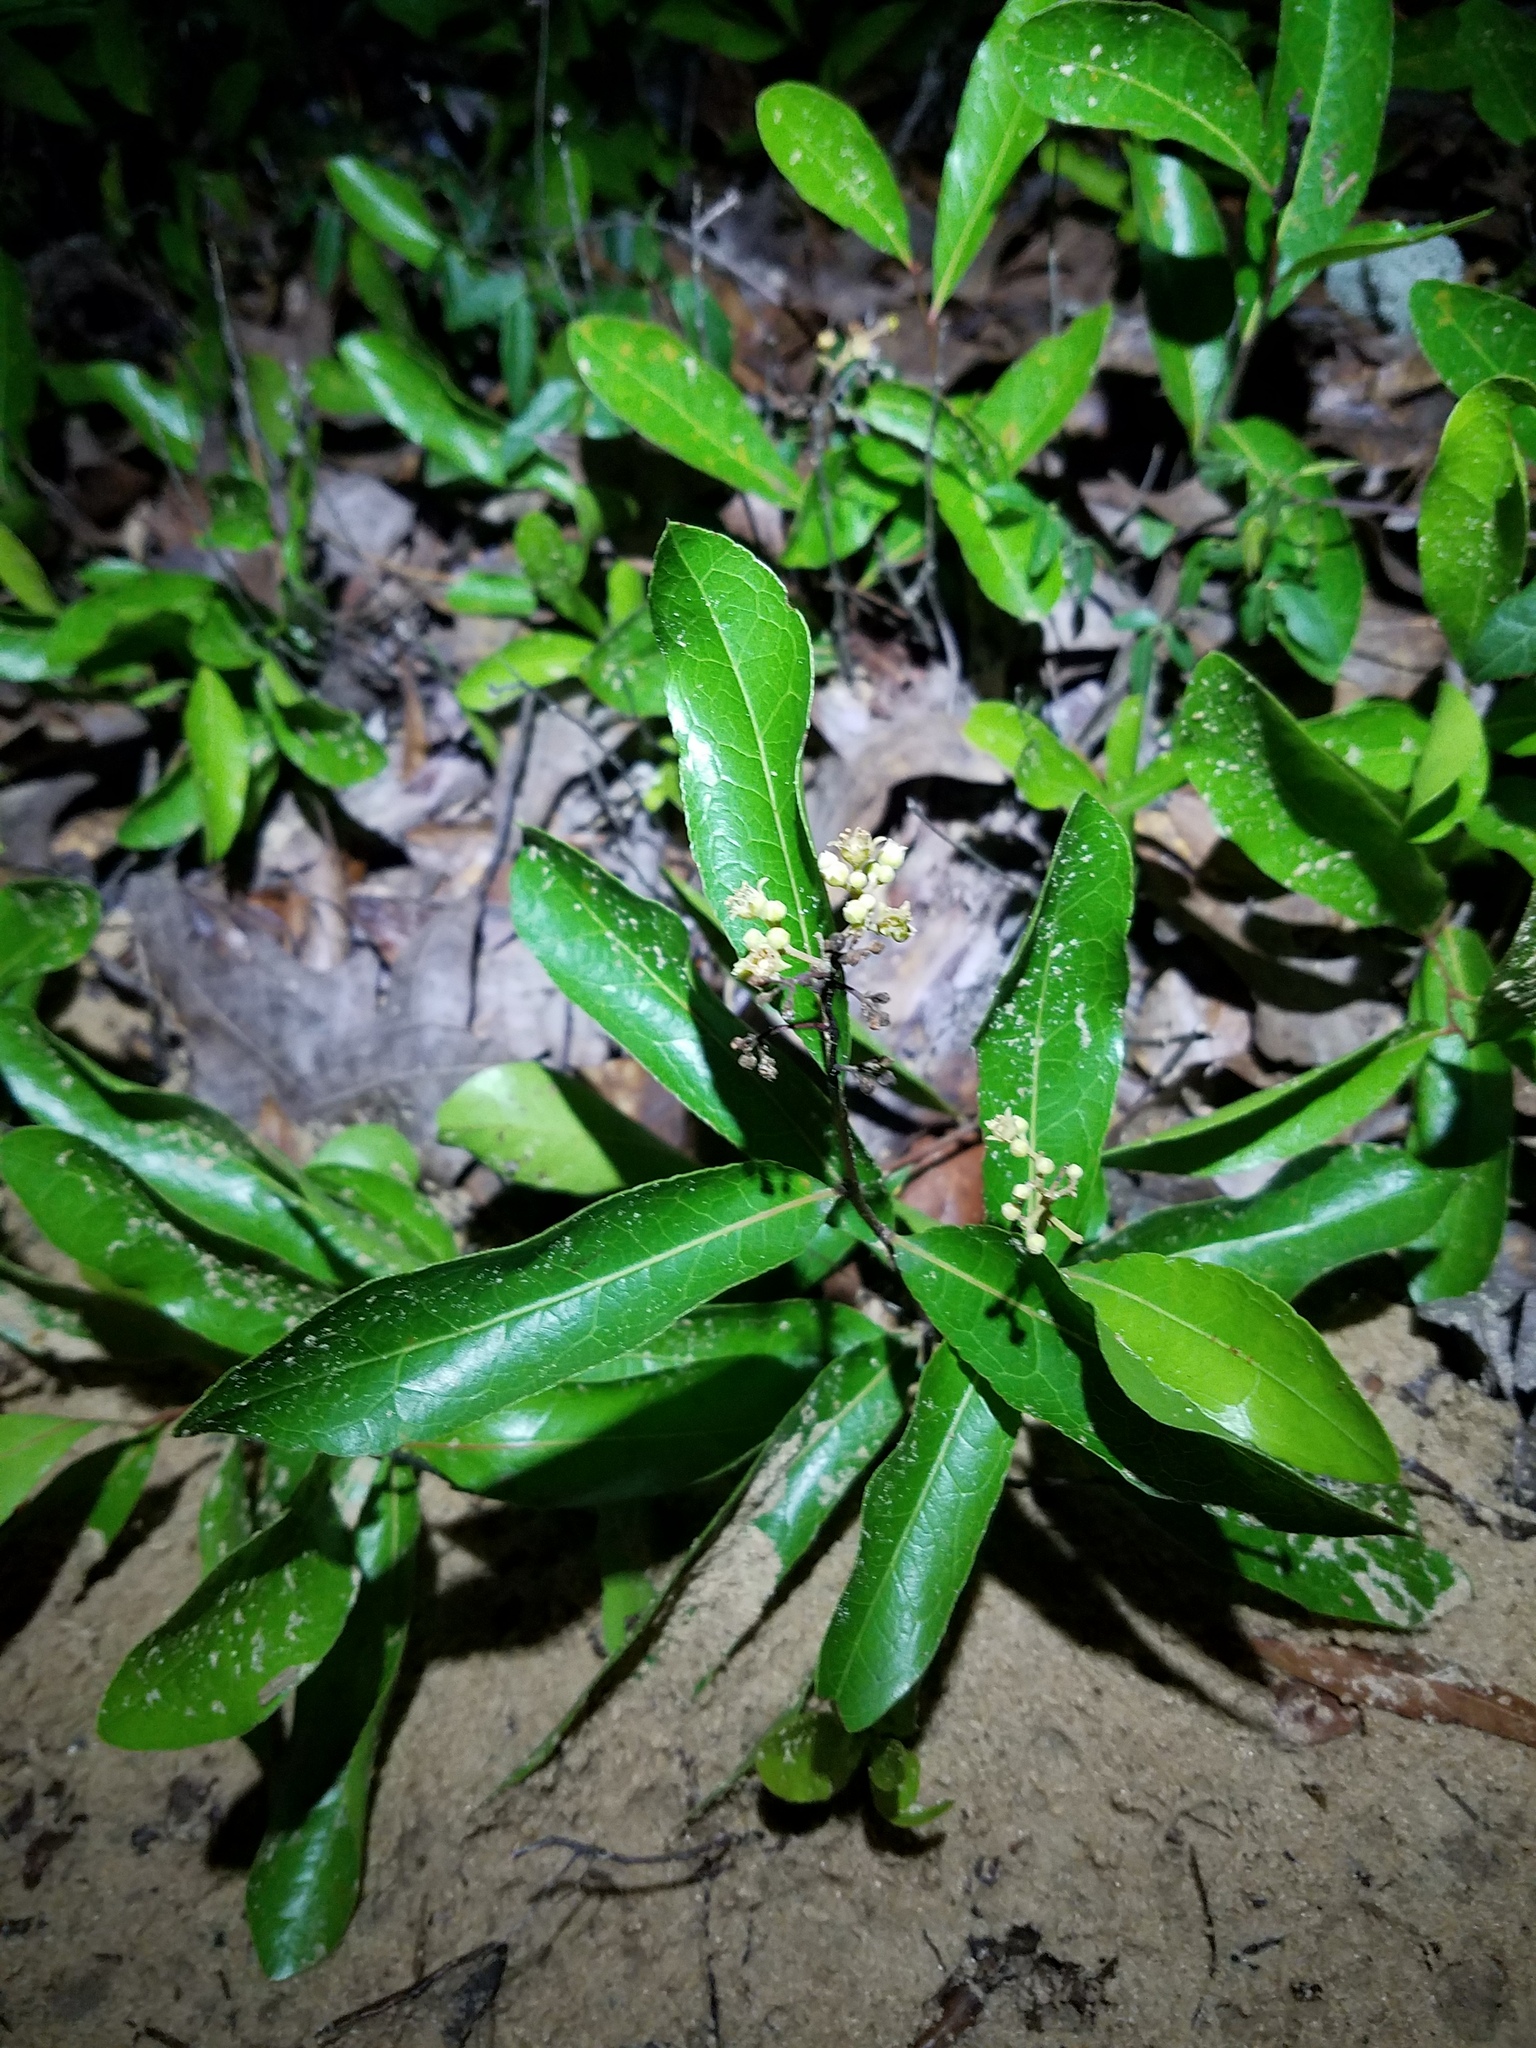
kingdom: Plantae
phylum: Tracheophyta
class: Magnoliopsida
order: Malpighiales
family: Chrysobalanaceae
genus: Geobalanus
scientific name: Geobalanus oblongifolius
